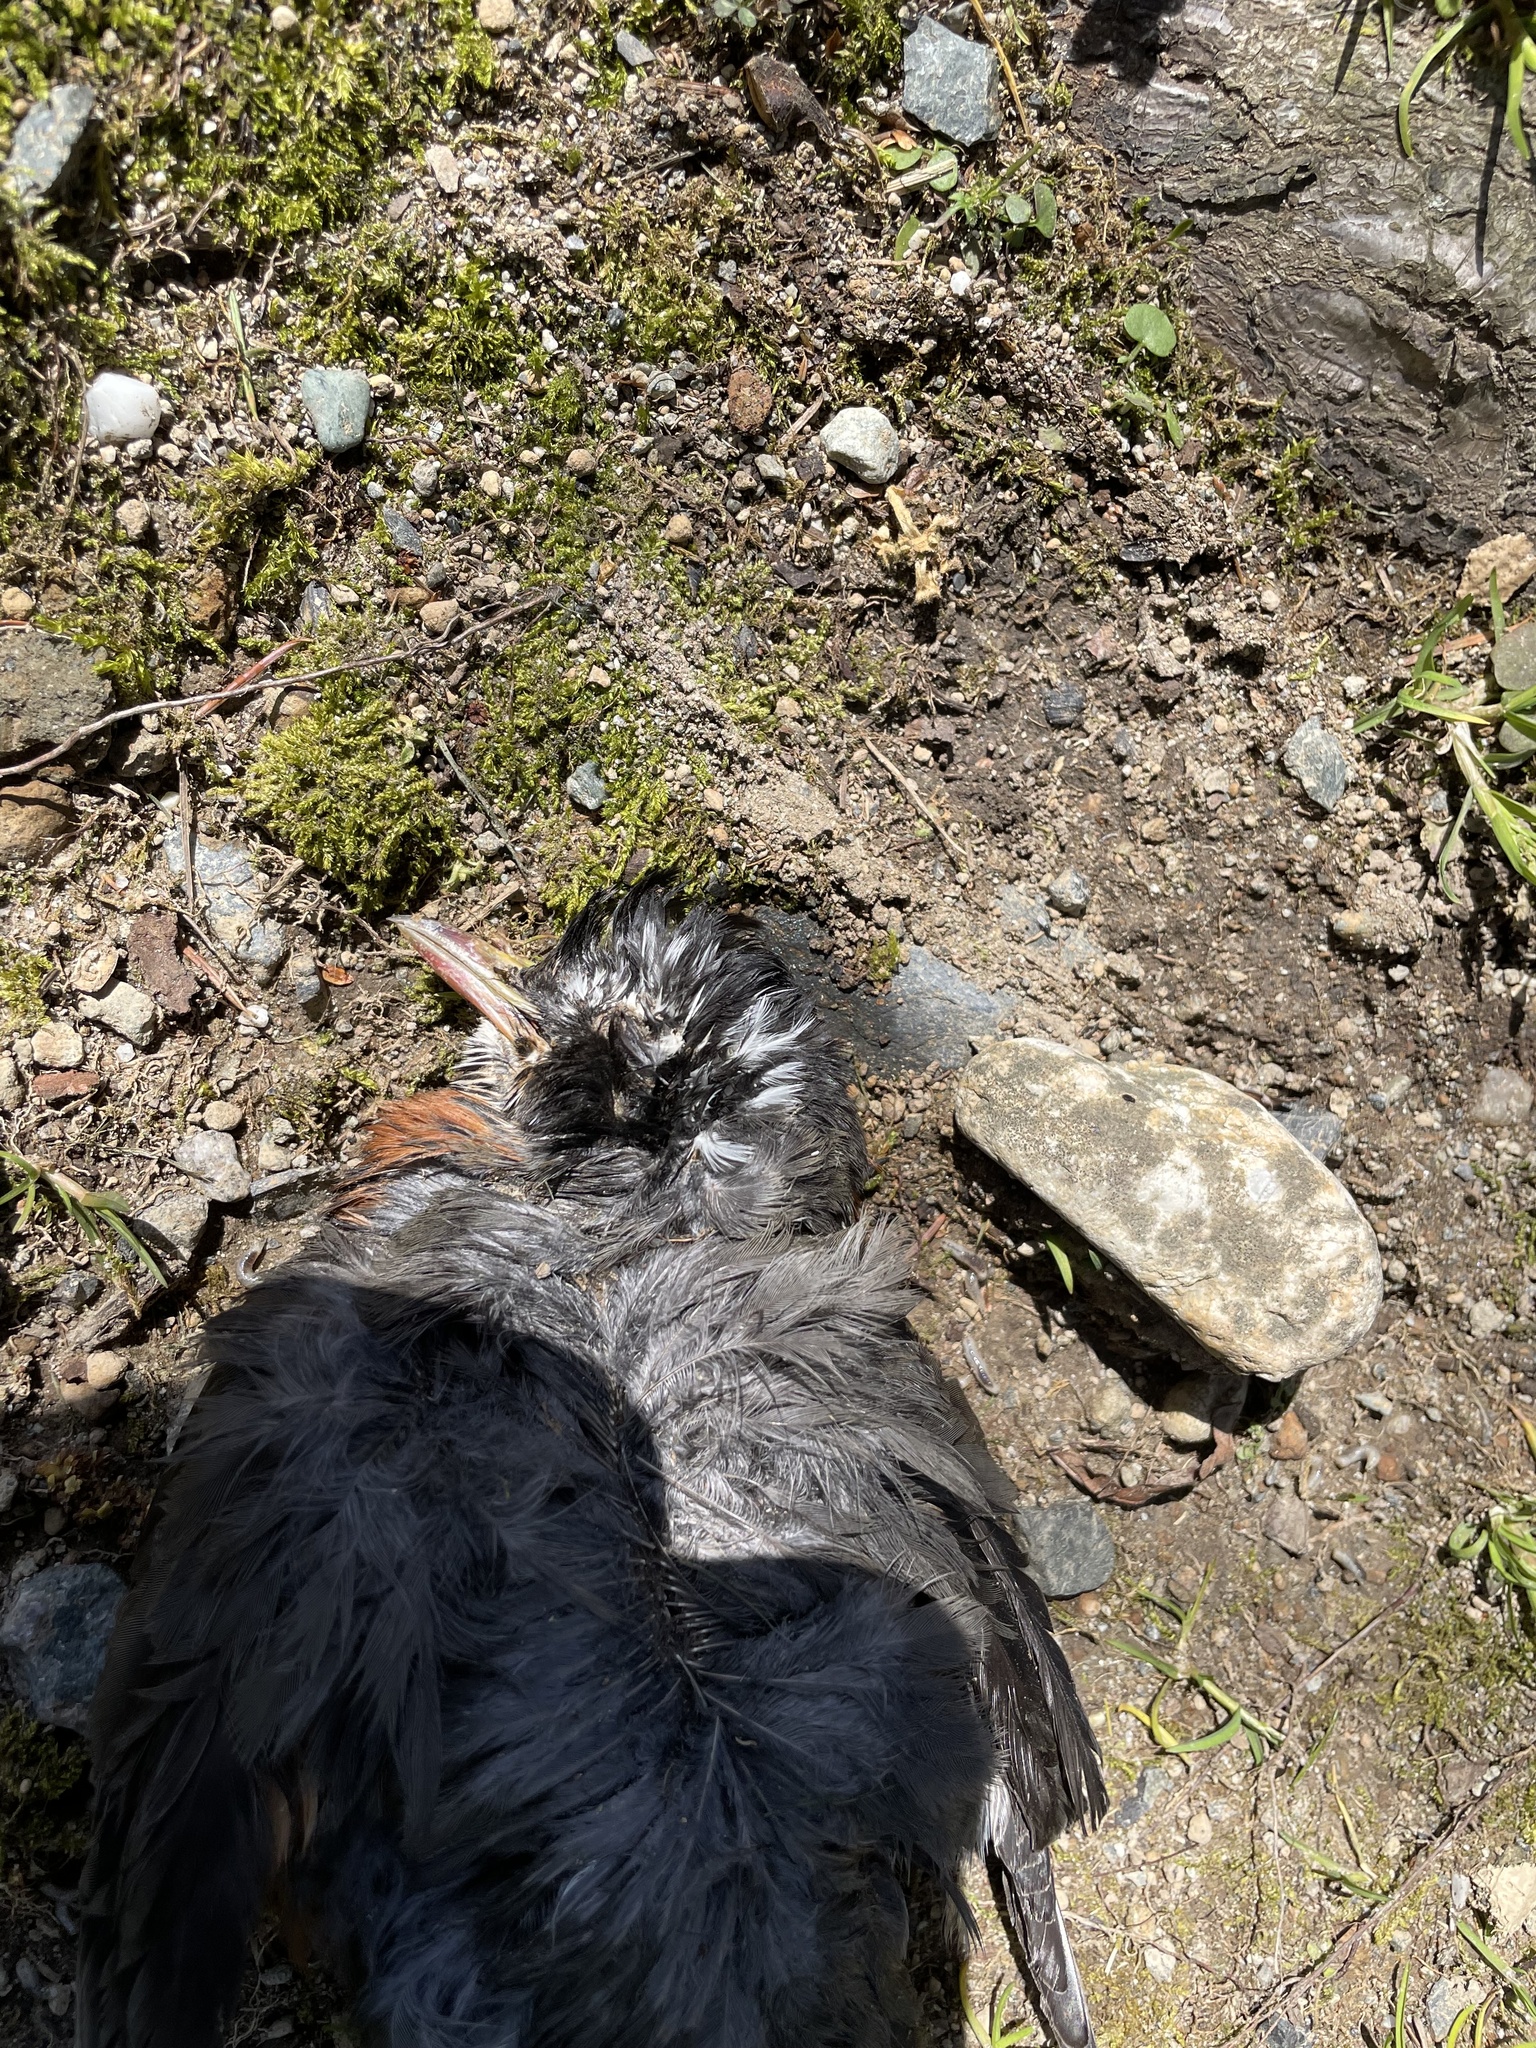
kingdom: Animalia
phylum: Chordata
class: Aves
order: Passeriformes
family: Turdidae
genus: Turdus
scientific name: Turdus migratorius
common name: American robin
